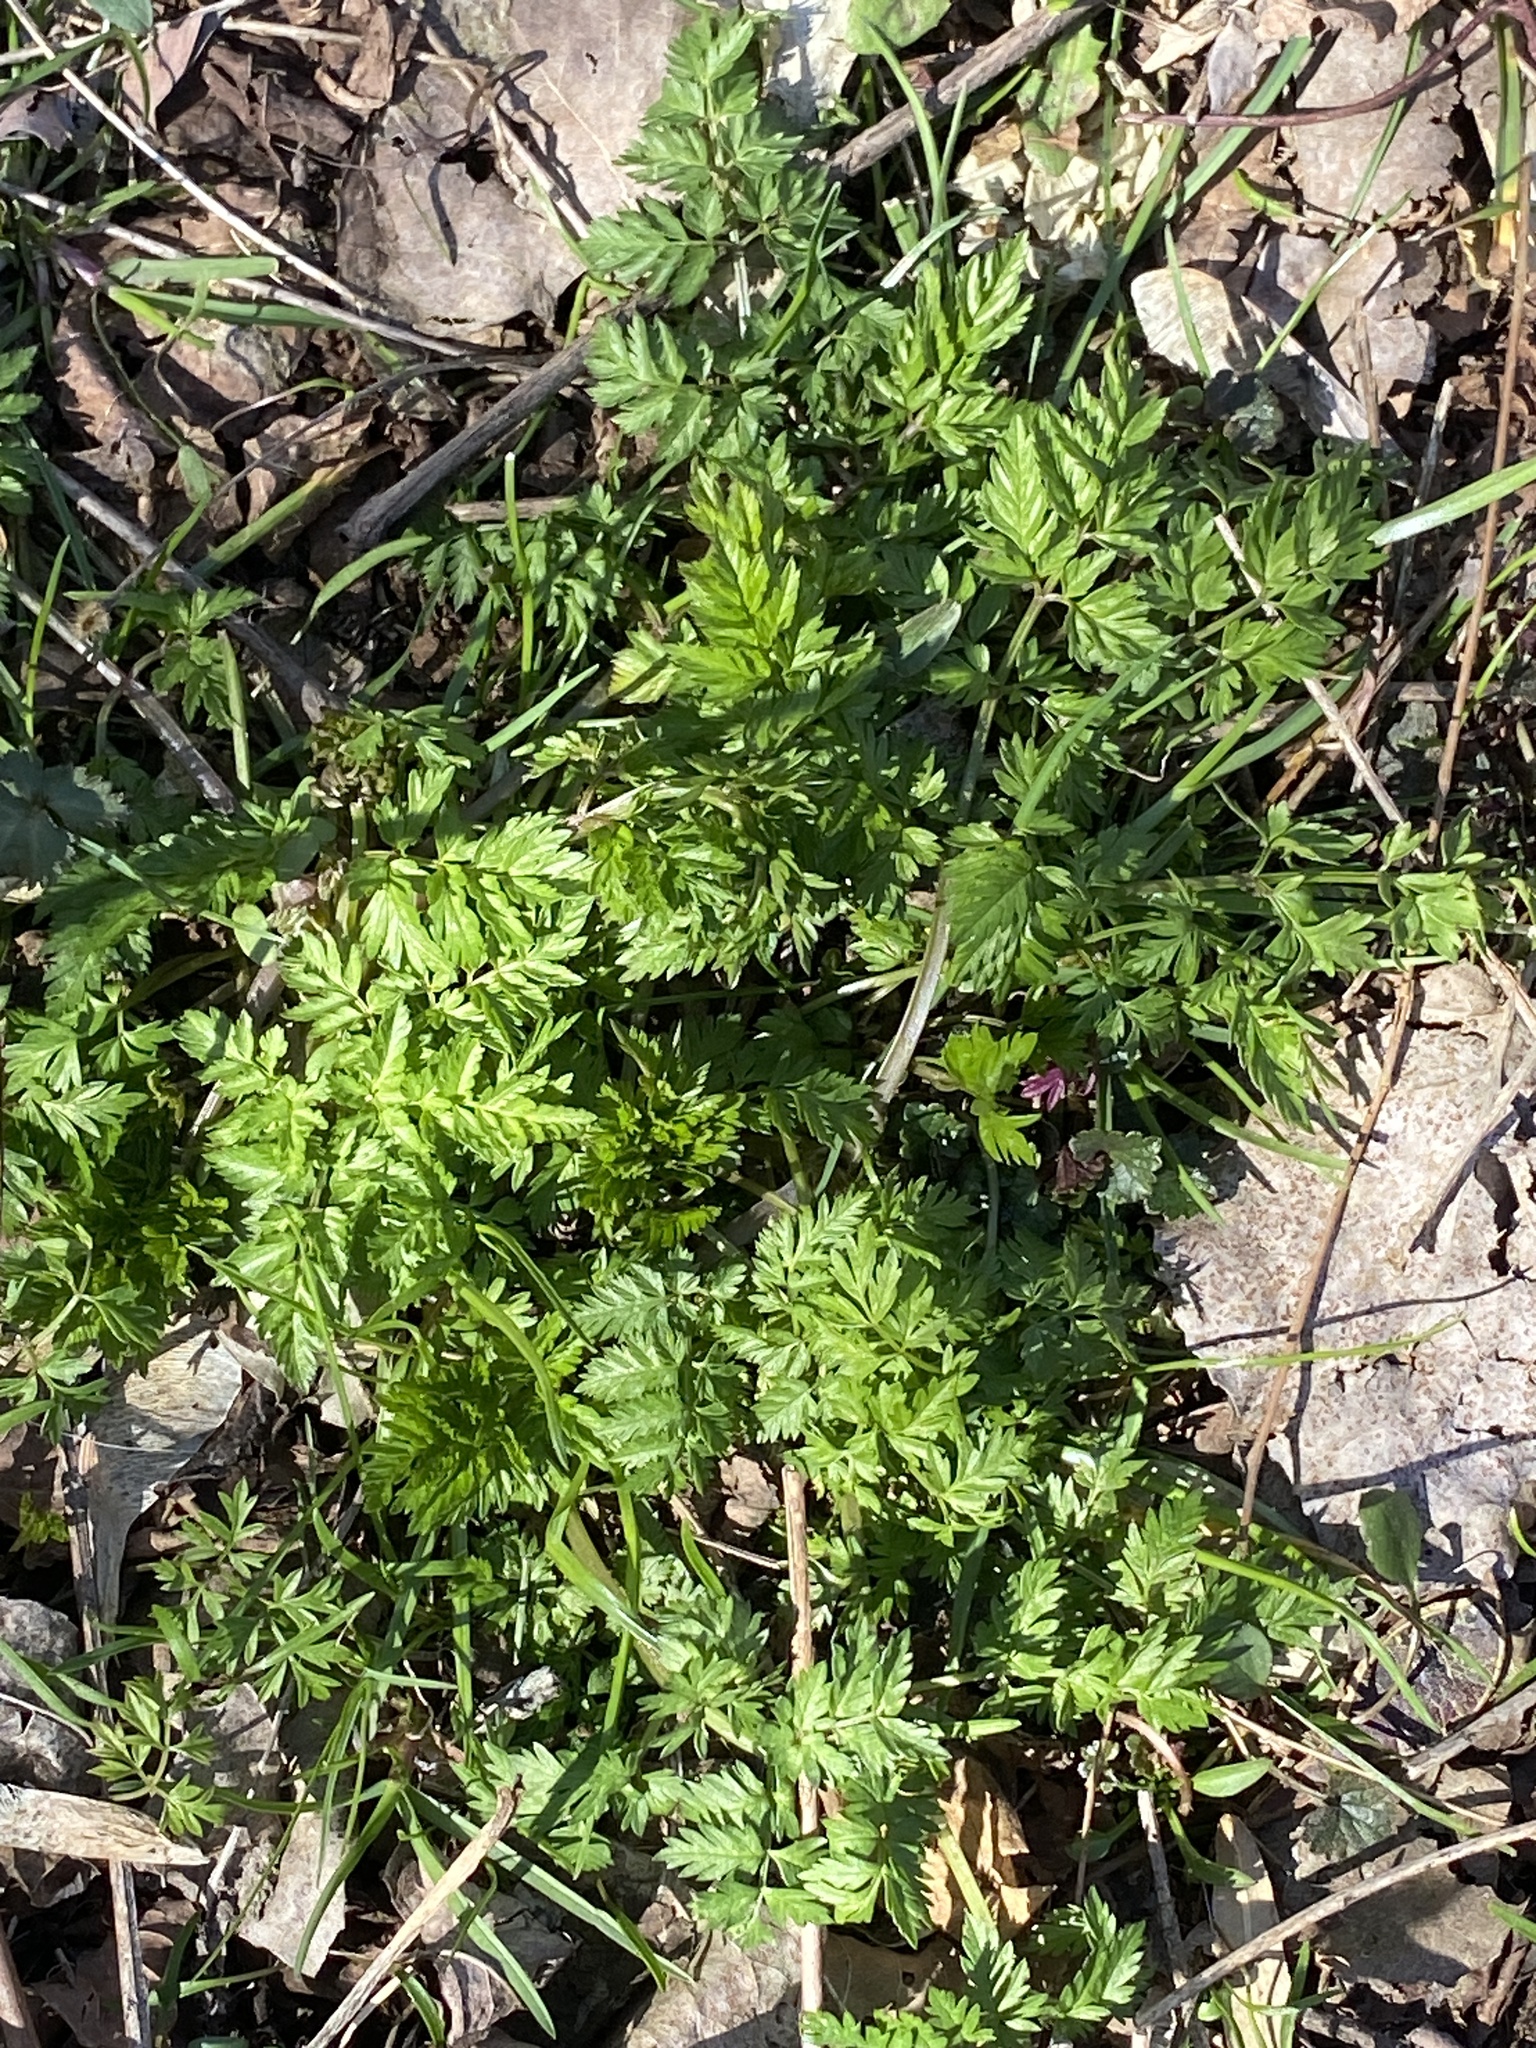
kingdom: Plantae
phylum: Tracheophyta
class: Magnoliopsida
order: Apiales
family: Apiaceae
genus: Anthriscus
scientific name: Anthriscus sylvestris
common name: Cow parsley
